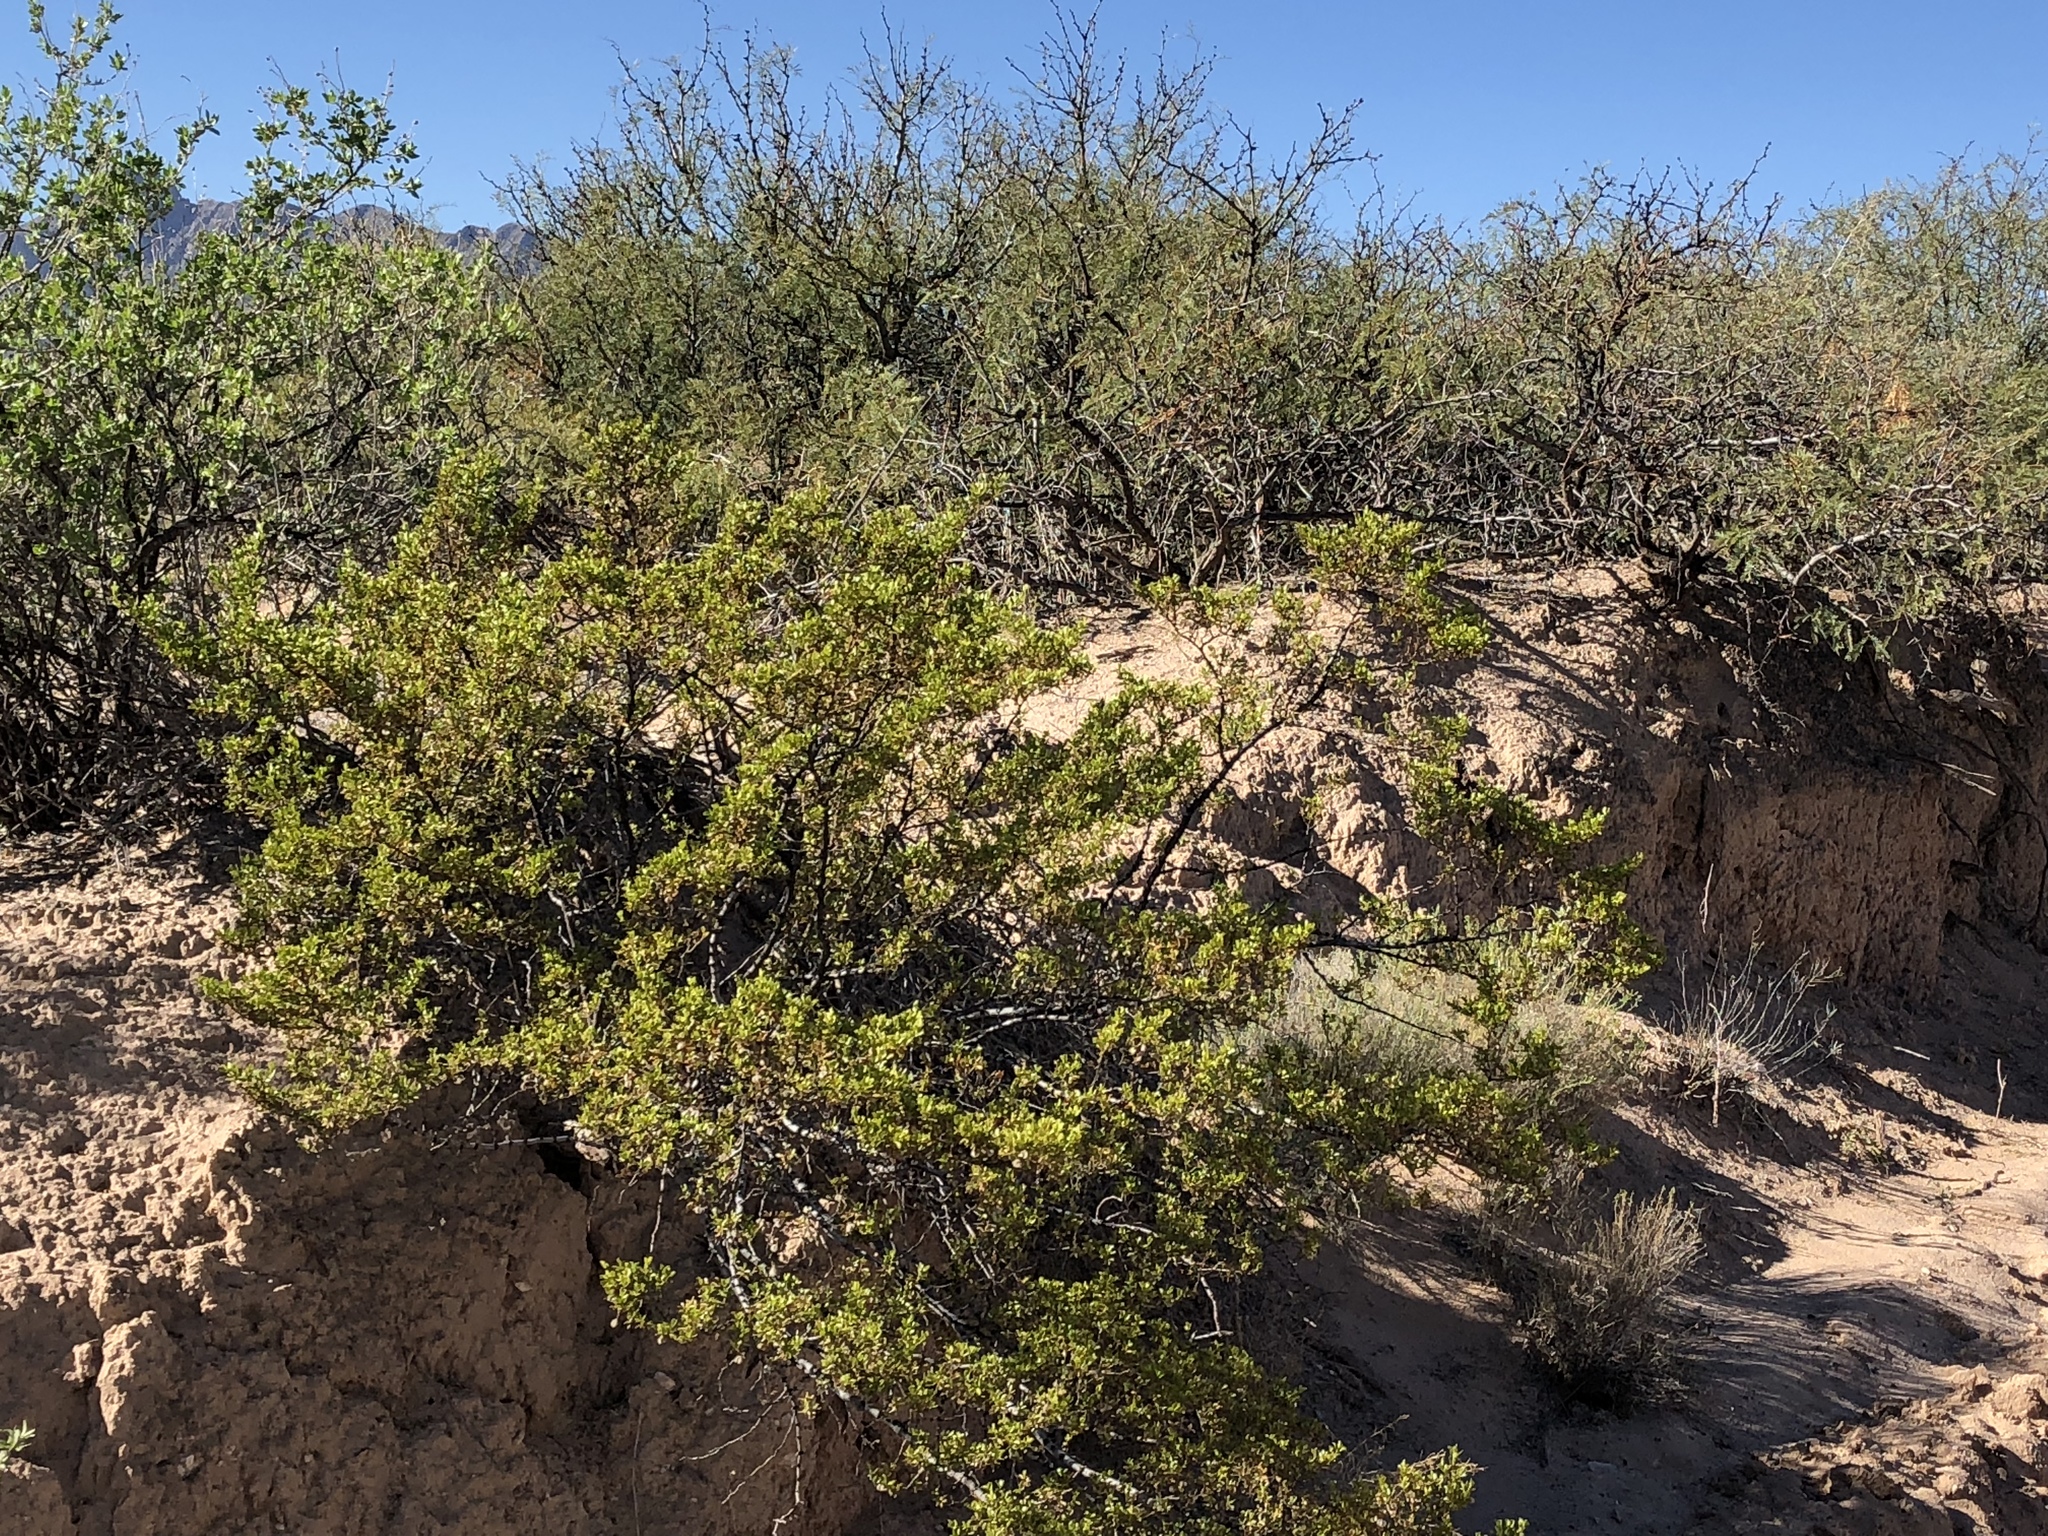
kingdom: Plantae
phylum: Tracheophyta
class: Magnoliopsida
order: Zygophyllales
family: Zygophyllaceae
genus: Larrea
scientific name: Larrea tridentata
